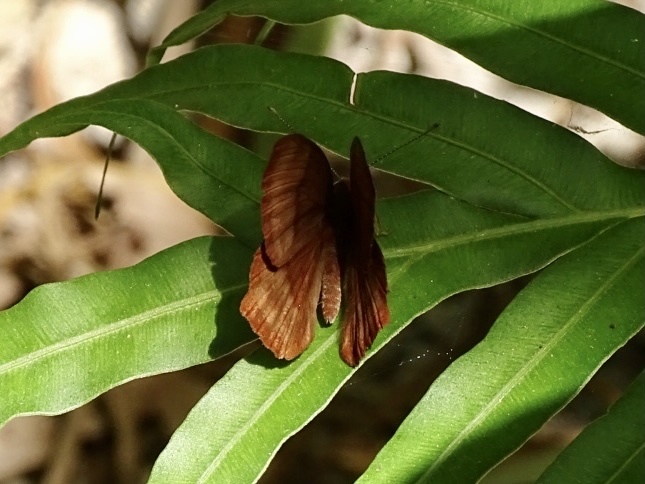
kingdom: Animalia
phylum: Arthropoda
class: Insecta
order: Lepidoptera
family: Lycaenidae
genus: Abisara
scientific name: Abisara echeria
